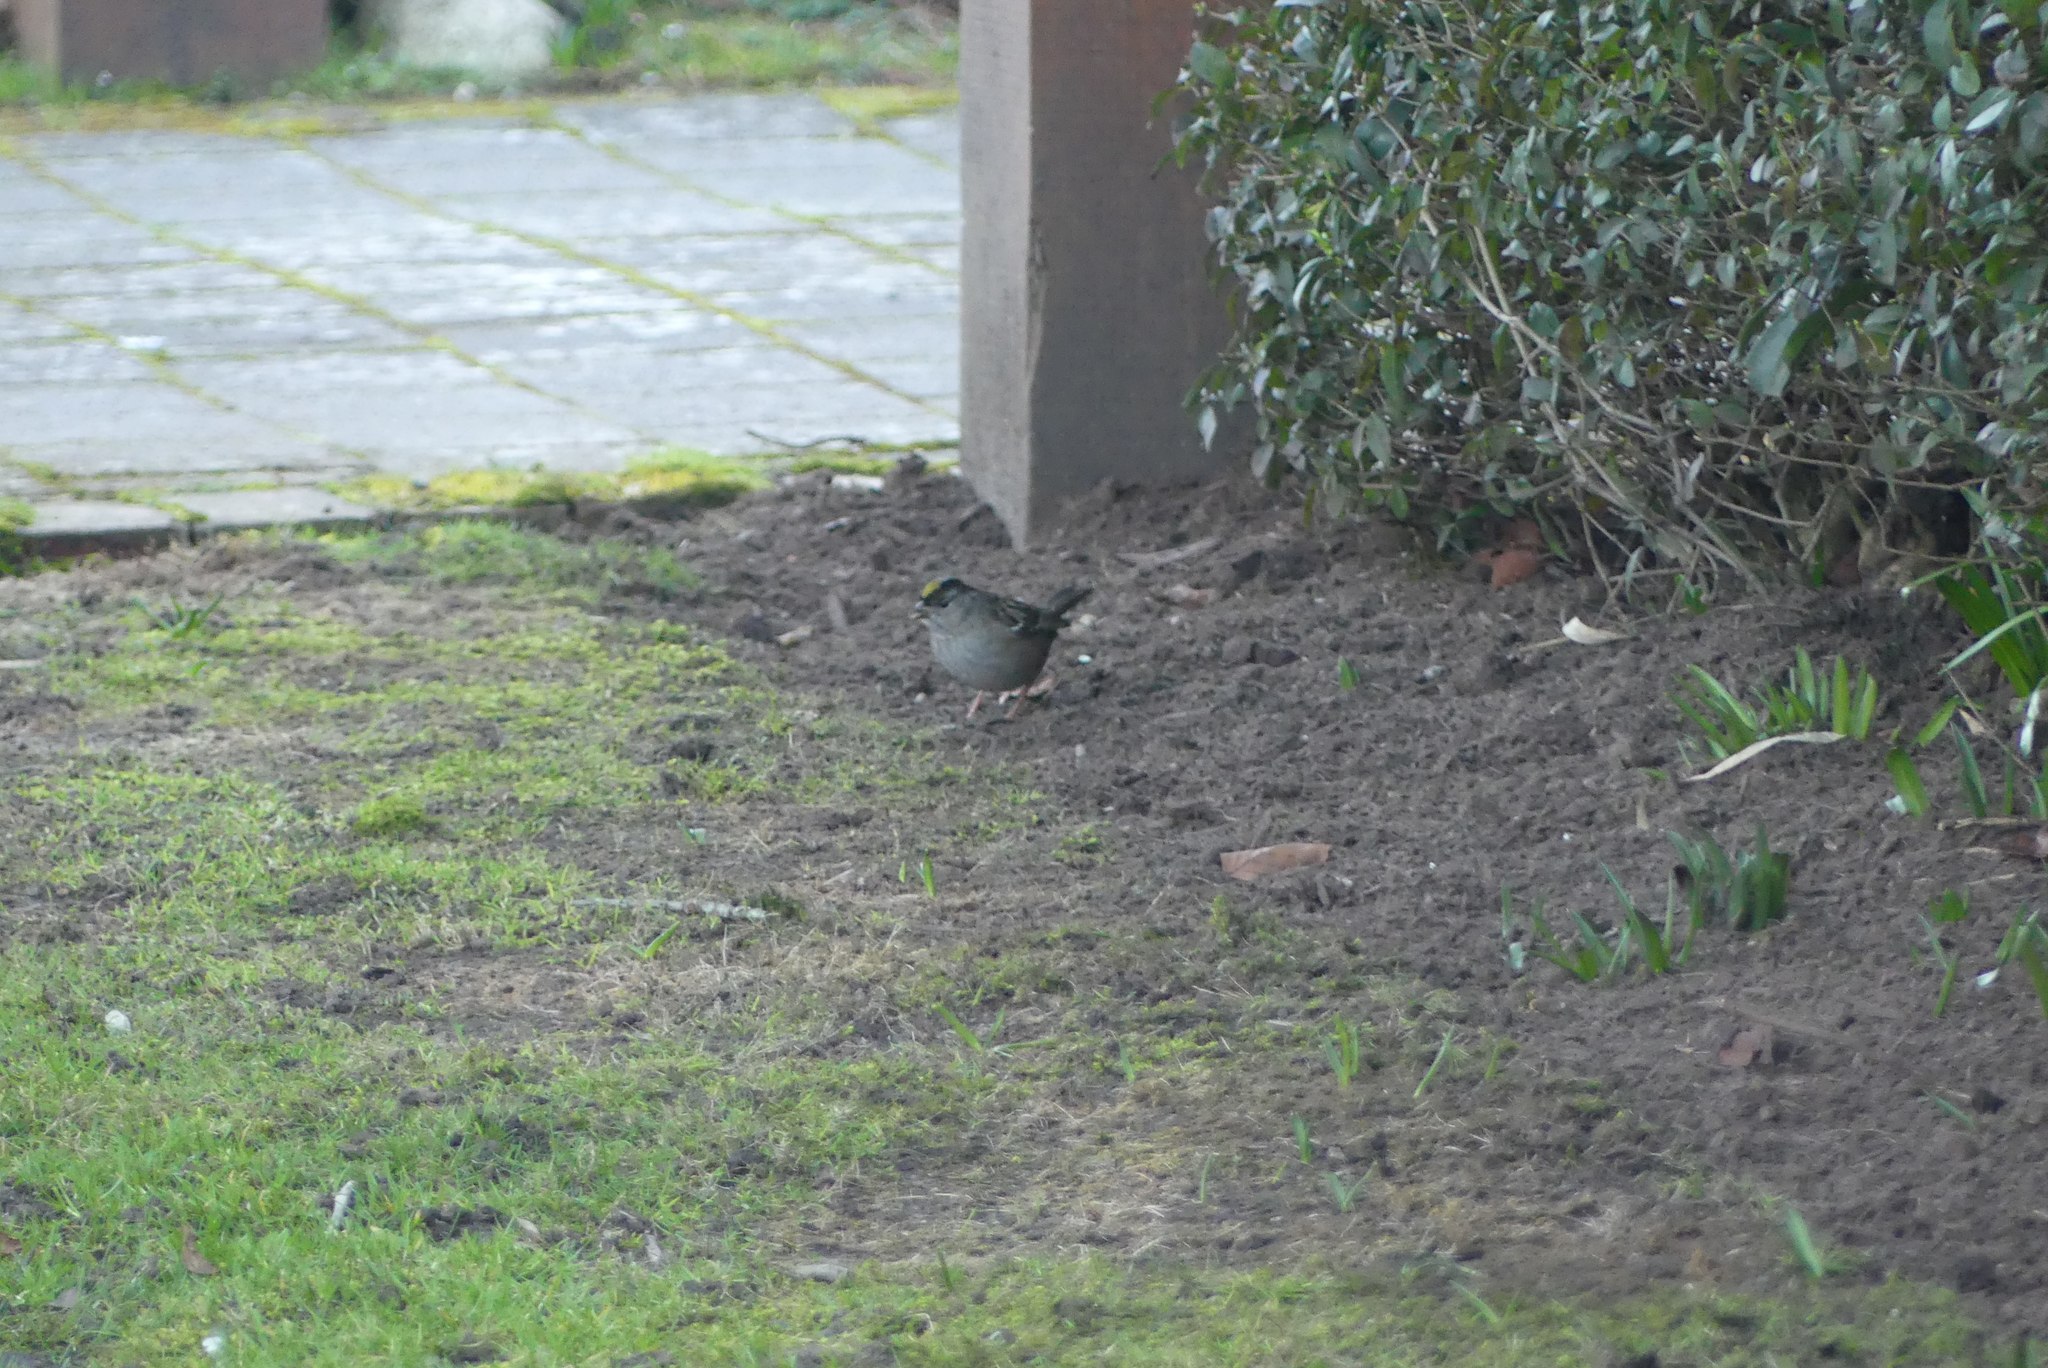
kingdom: Animalia
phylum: Chordata
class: Aves
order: Passeriformes
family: Passerellidae
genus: Zonotrichia
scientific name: Zonotrichia atricapilla
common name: Golden-crowned sparrow
